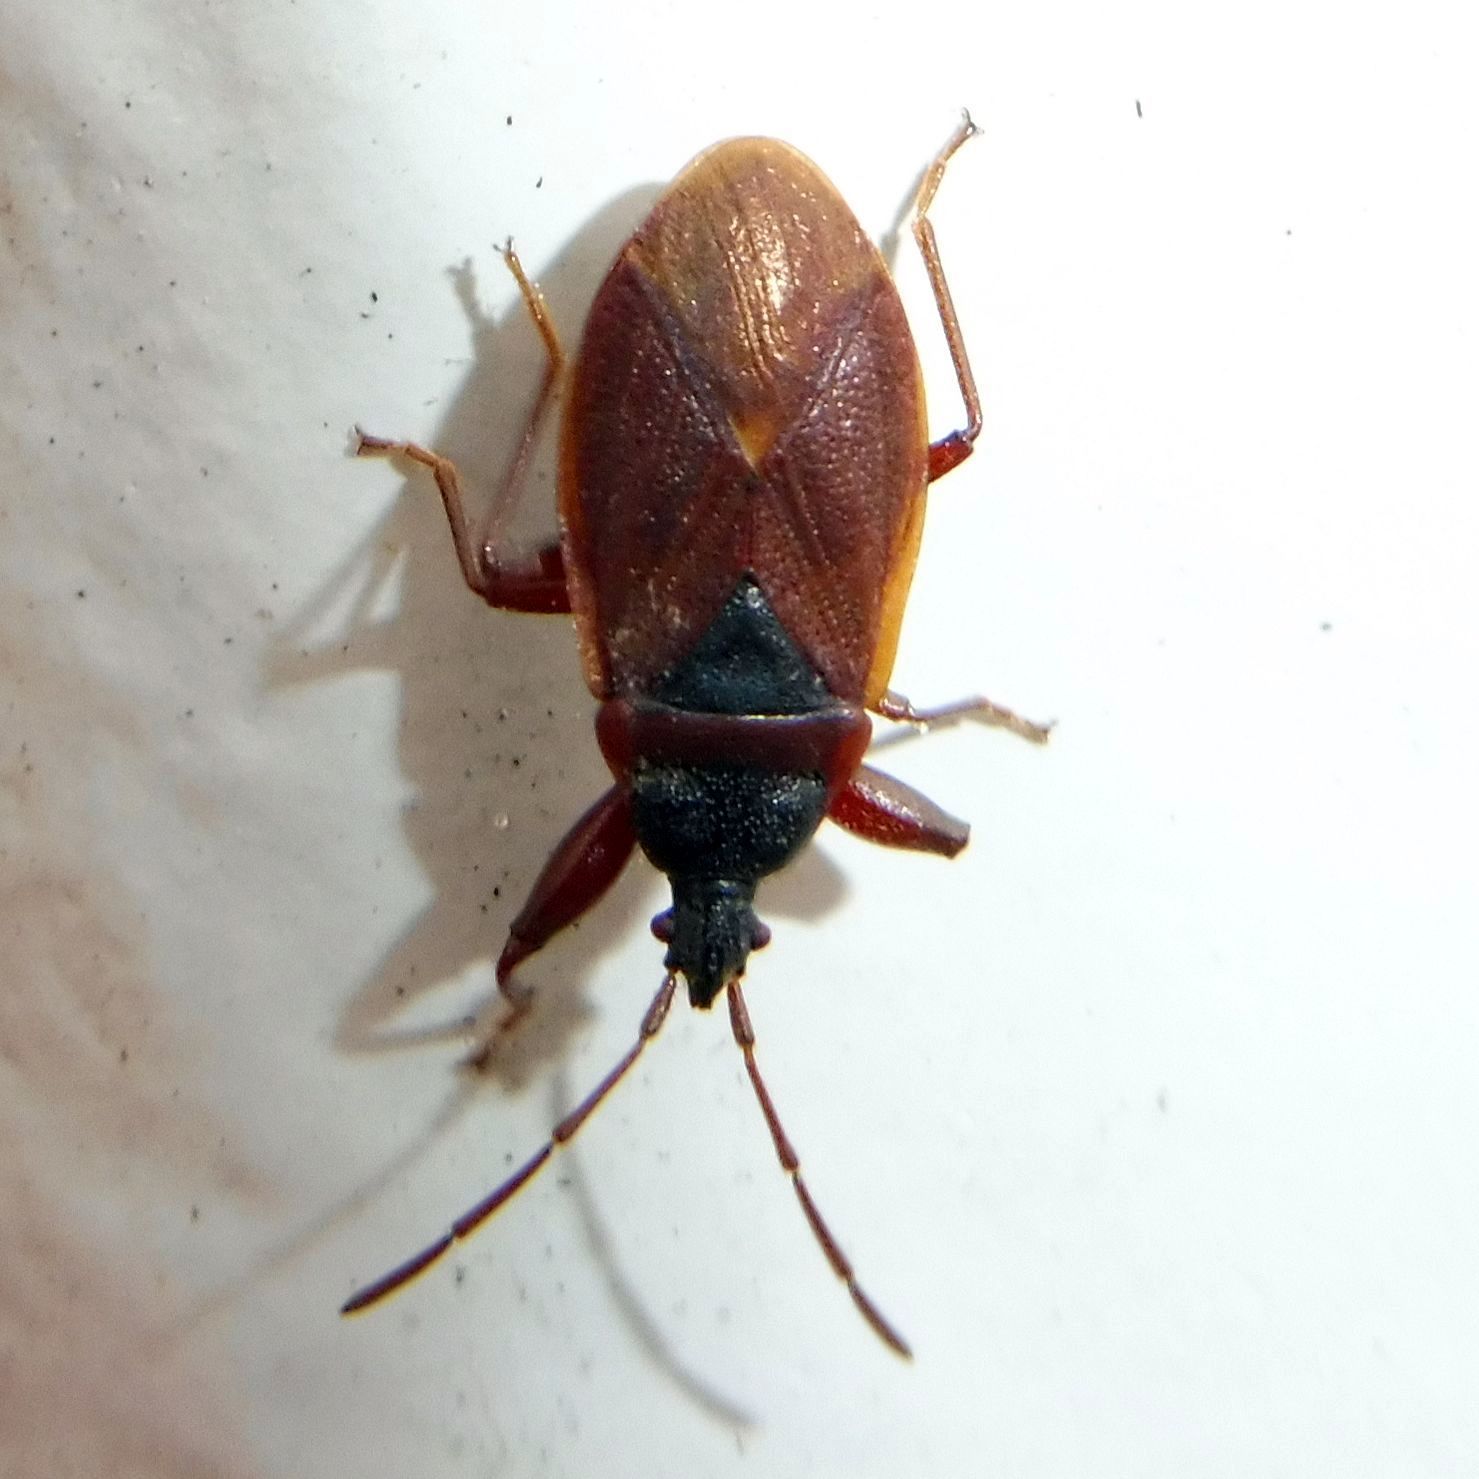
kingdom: Animalia
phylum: Arthropoda
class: Insecta
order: Hemiptera
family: Rhyparochromidae
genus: Gastrodes
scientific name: Gastrodes grossipes
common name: Pine cone bug
